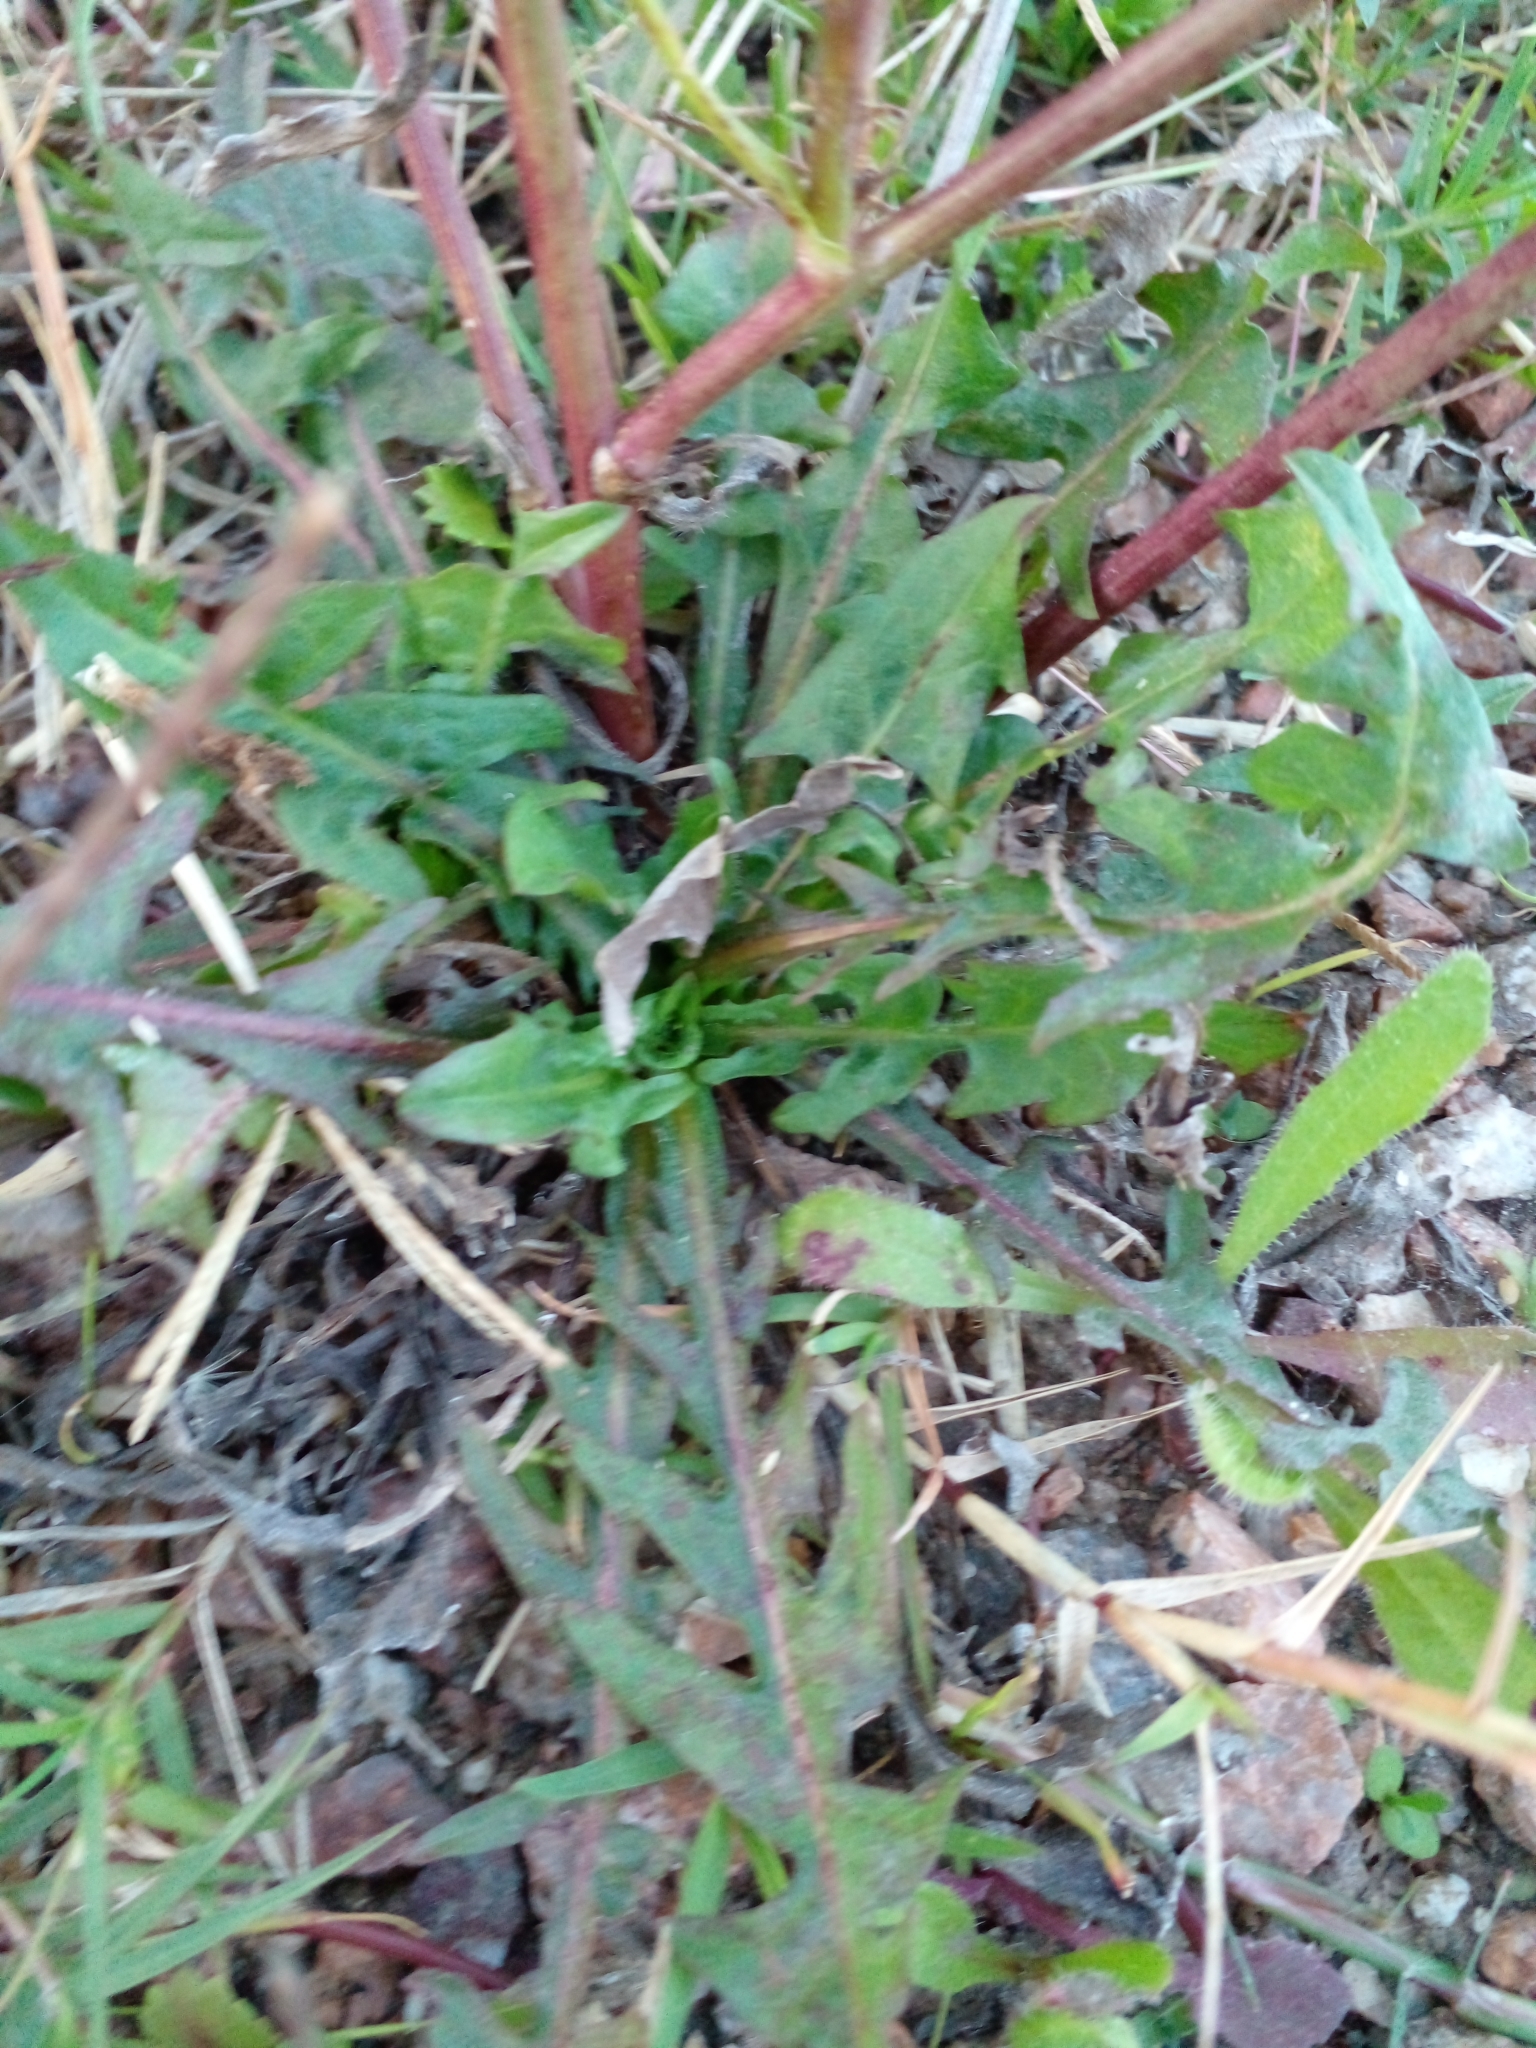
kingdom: Plantae
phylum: Tracheophyta
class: Magnoliopsida
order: Asterales
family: Asteraceae
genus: Cichorium
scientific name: Cichorium intybus
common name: Chicory
